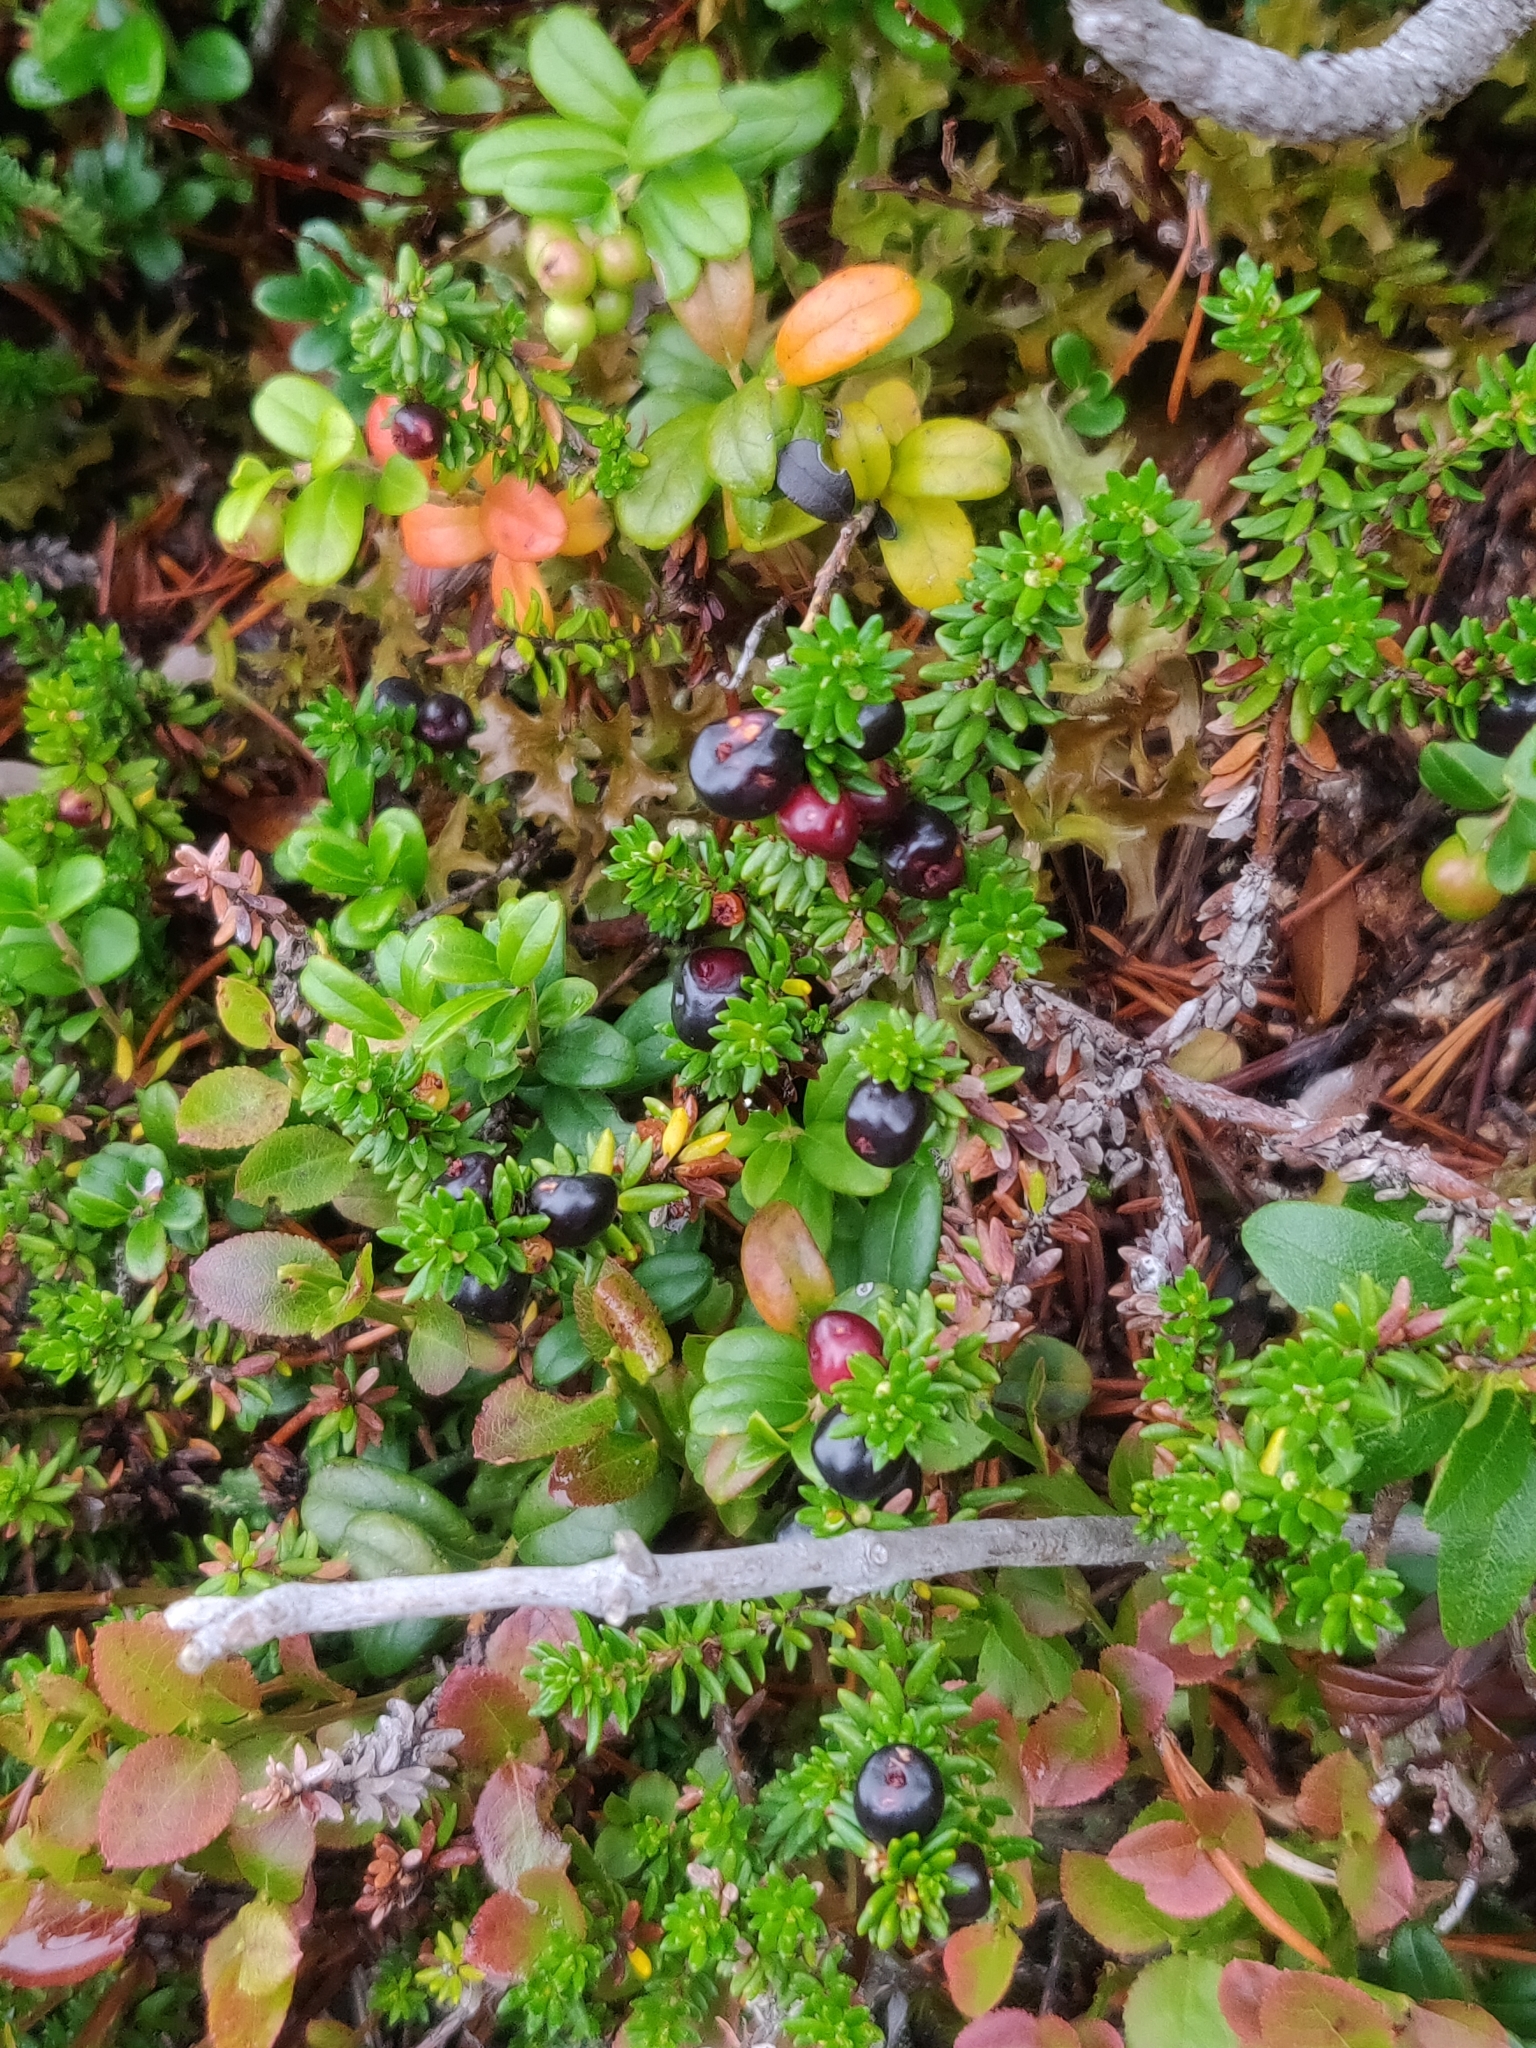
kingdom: Plantae
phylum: Tracheophyta
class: Magnoliopsida
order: Ericales
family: Ericaceae
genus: Empetrum
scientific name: Empetrum nigrum
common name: Black crowberry
